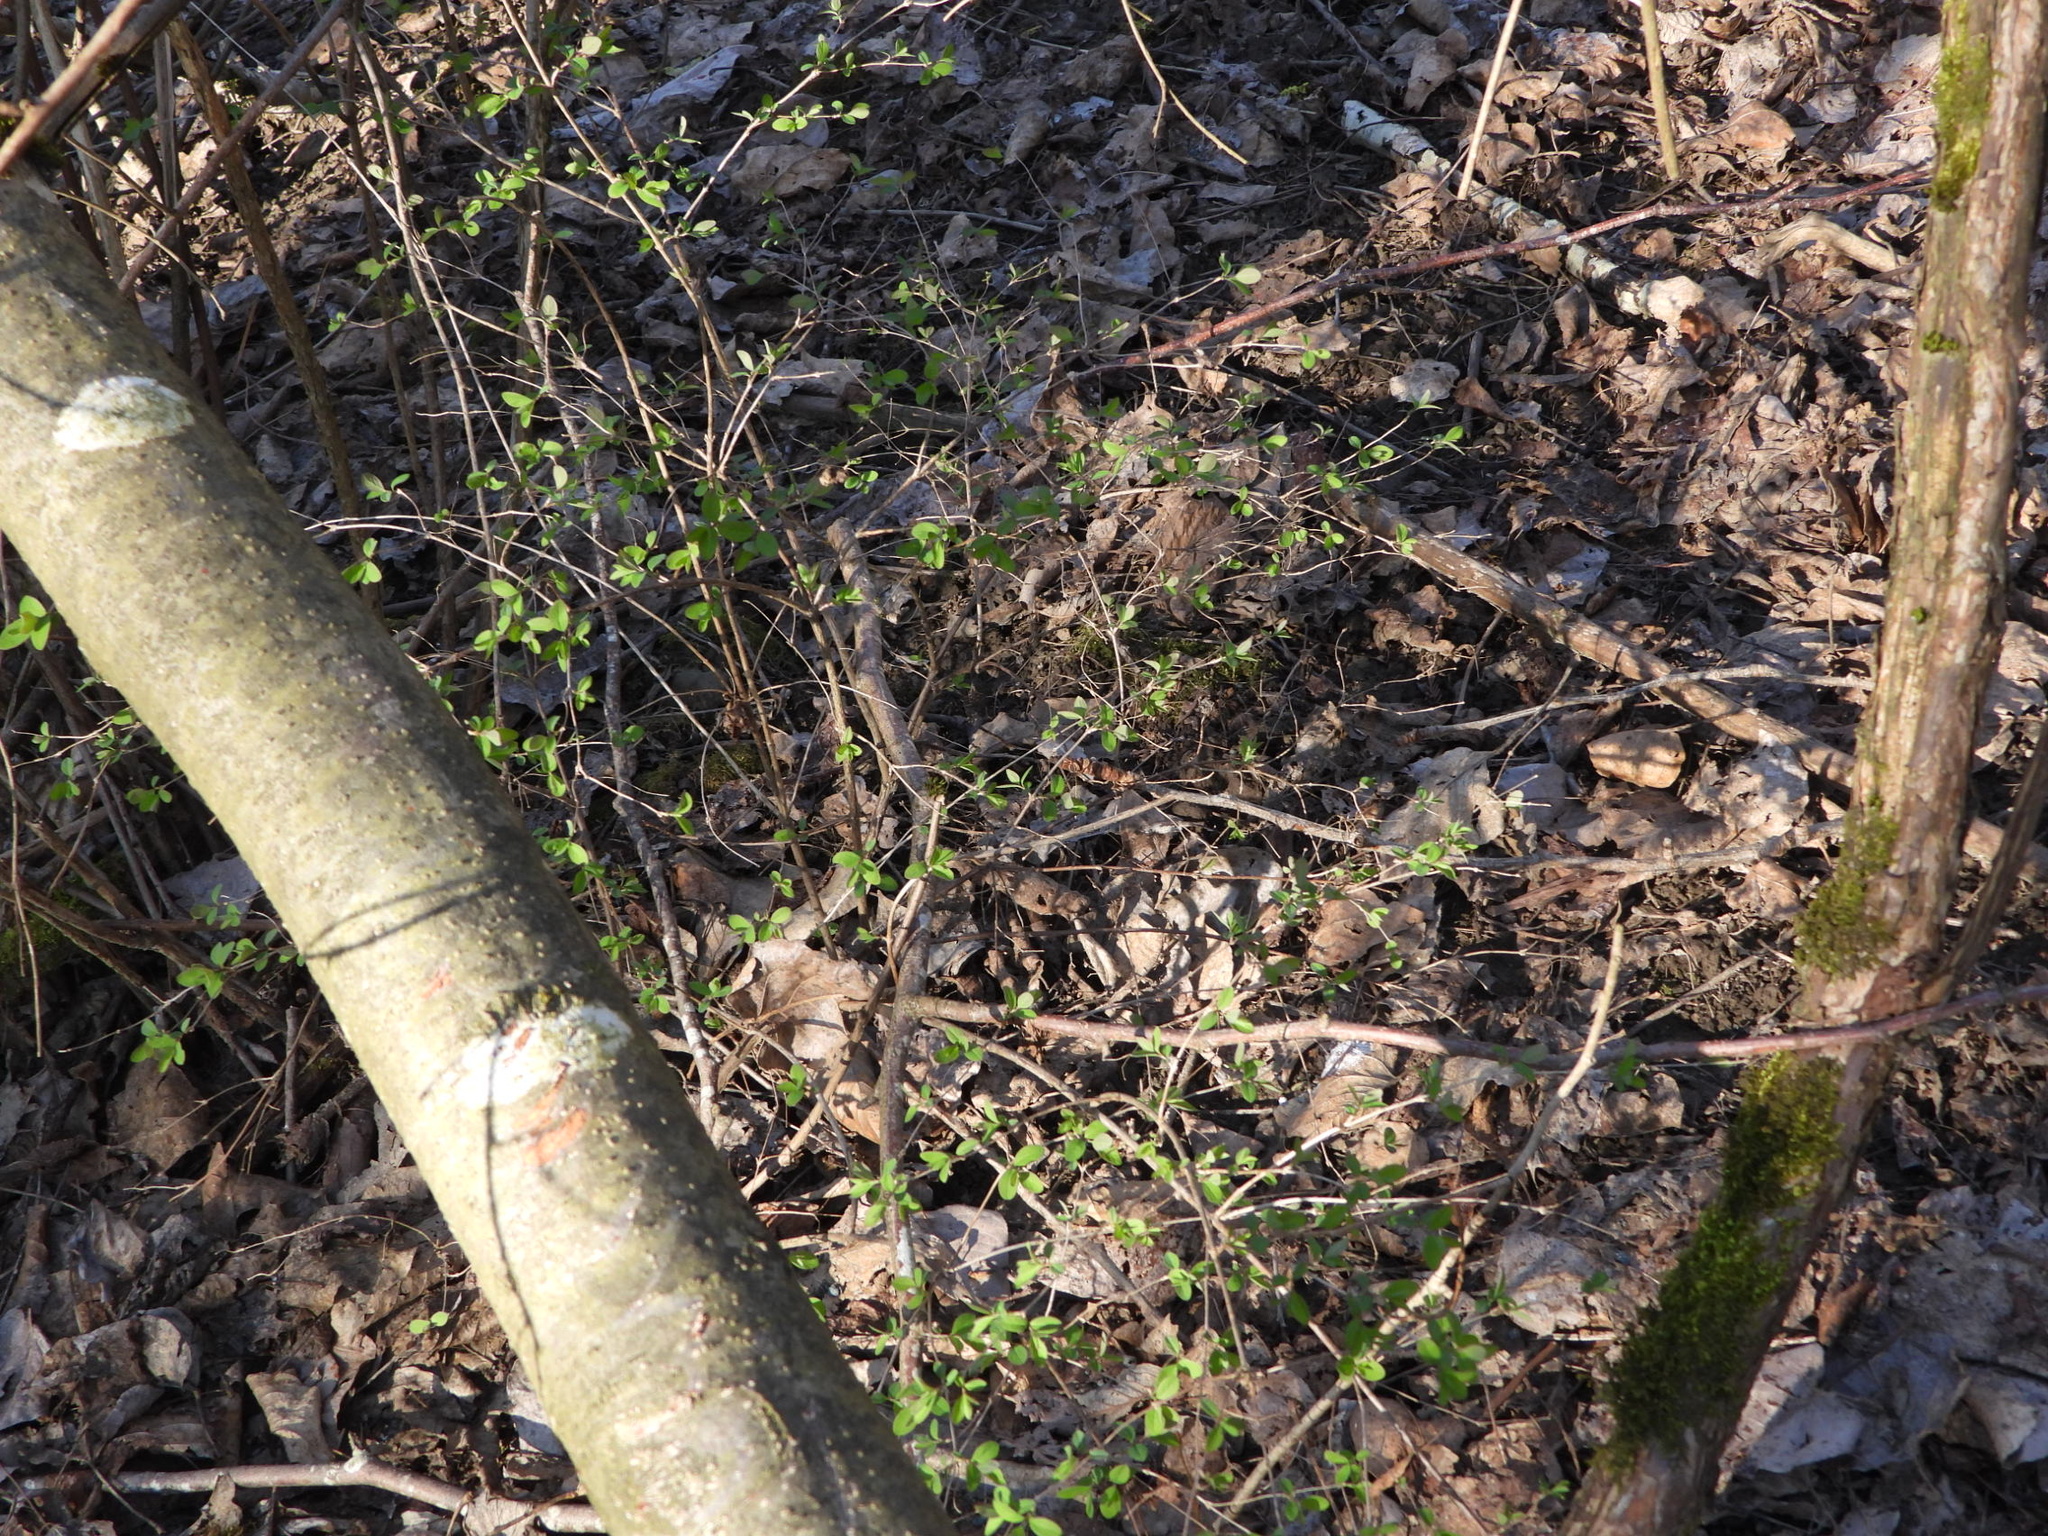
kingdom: Plantae
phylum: Tracheophyta
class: Magnoliopsida
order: Dipsacales
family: Caprifoliaceae
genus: Symphoricarpos
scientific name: Symphoricarpos albus
